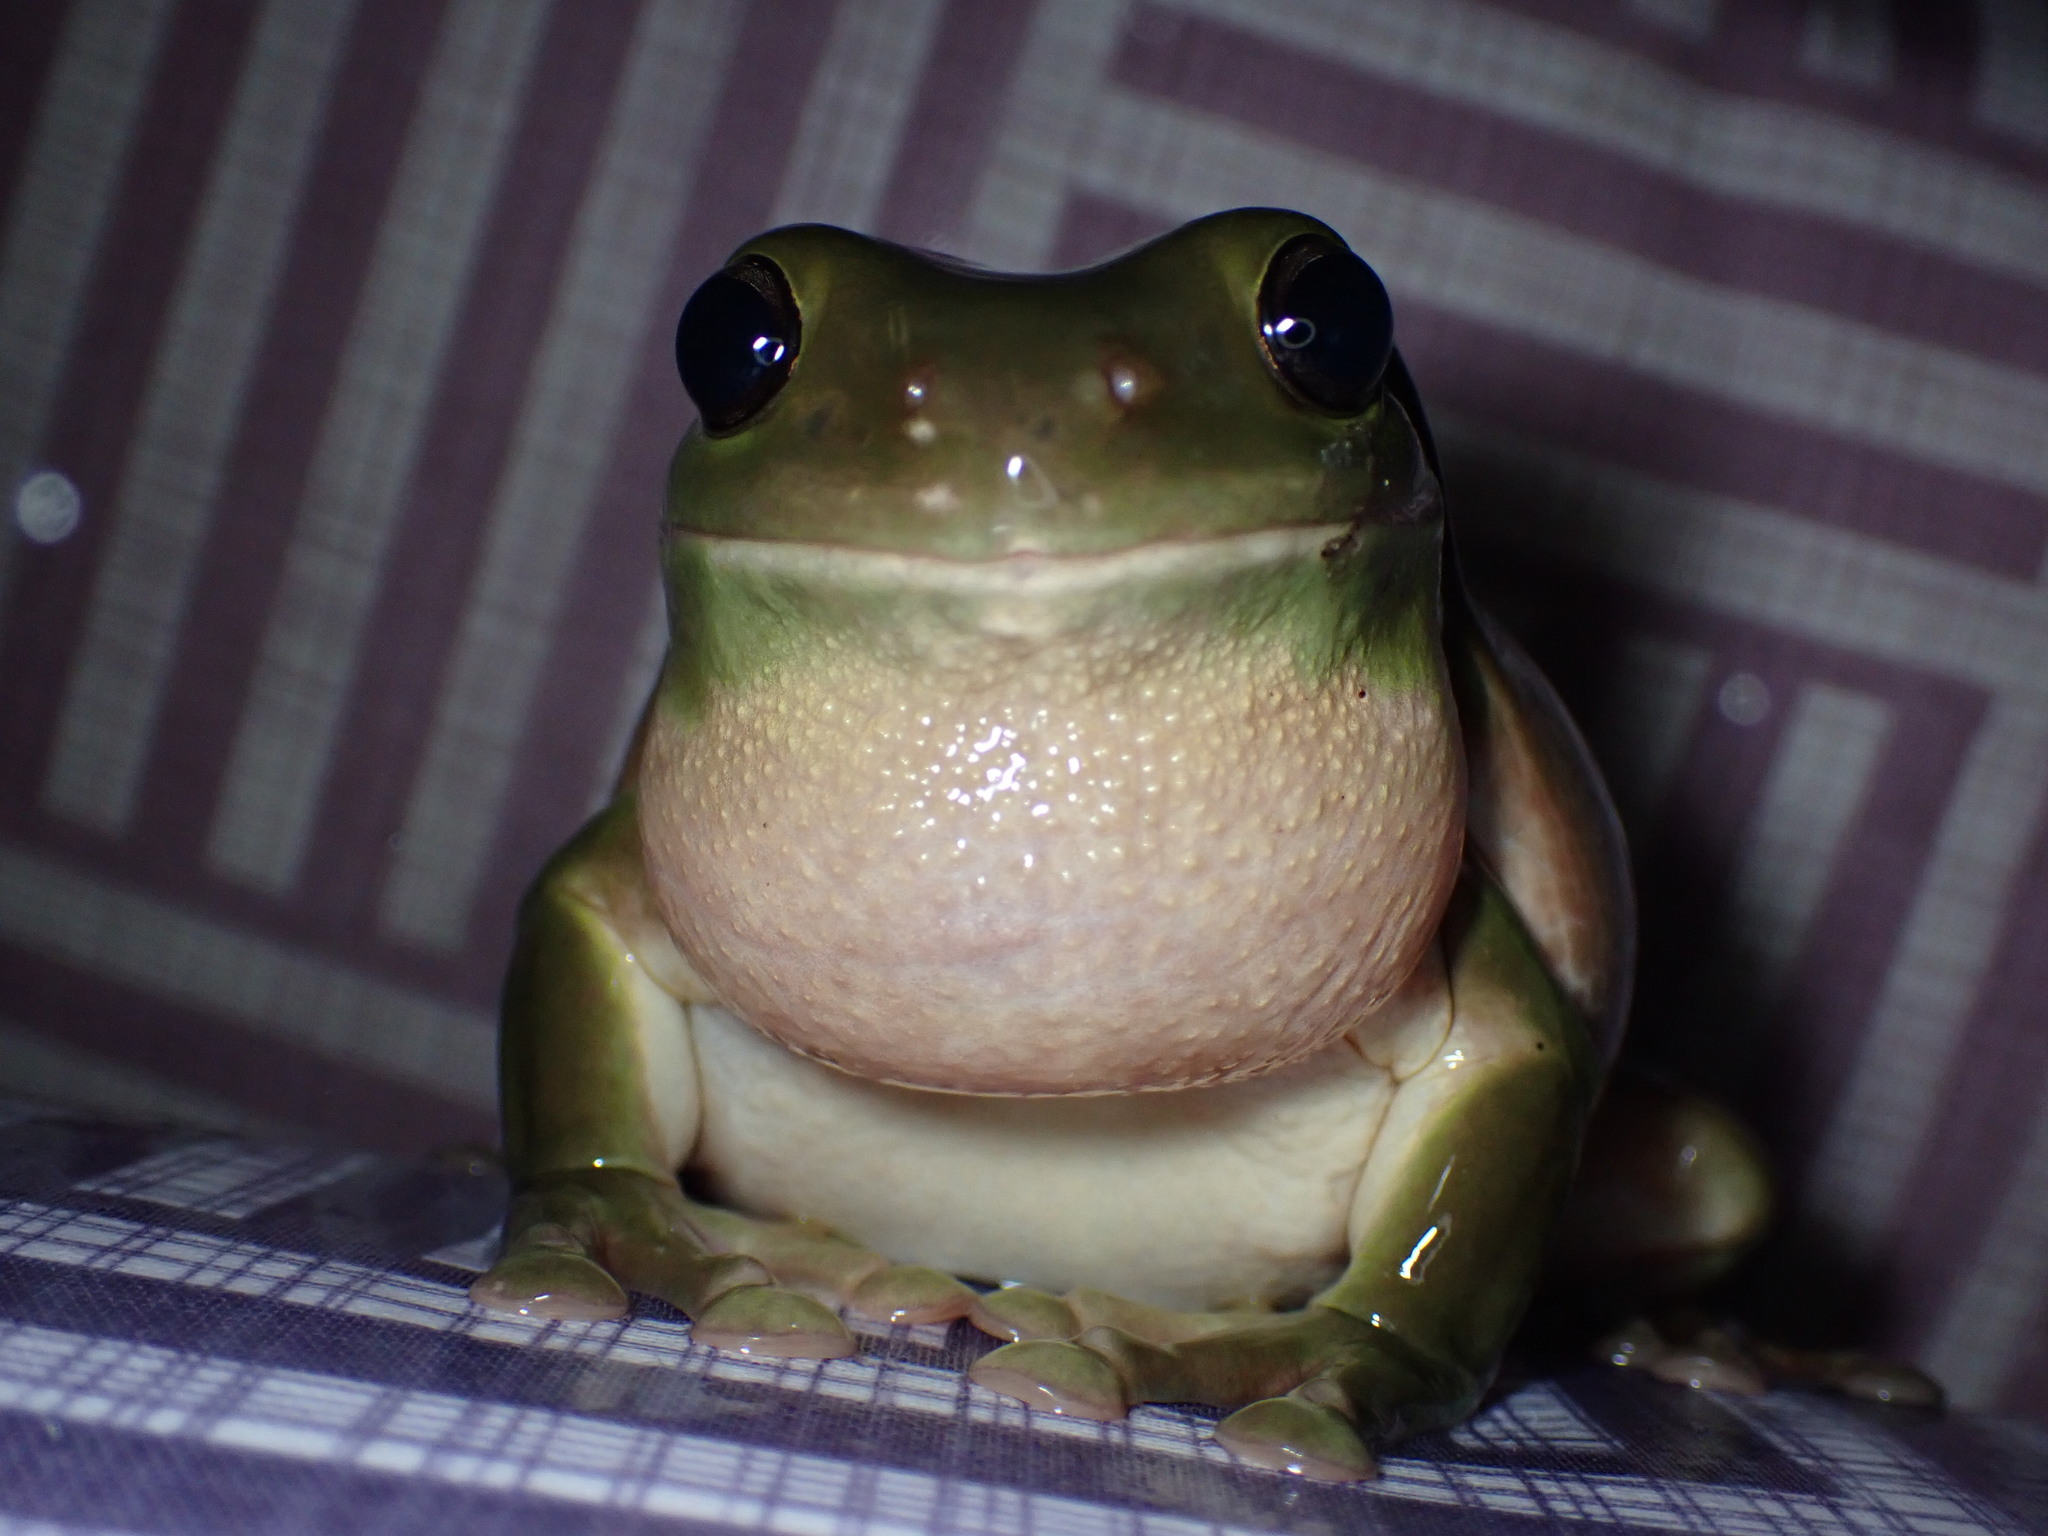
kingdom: Animalia
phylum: Chordata
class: Amphibia
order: Anura
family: Pelodryadidae
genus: Ranoidea
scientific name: Ranoidea caerulea
